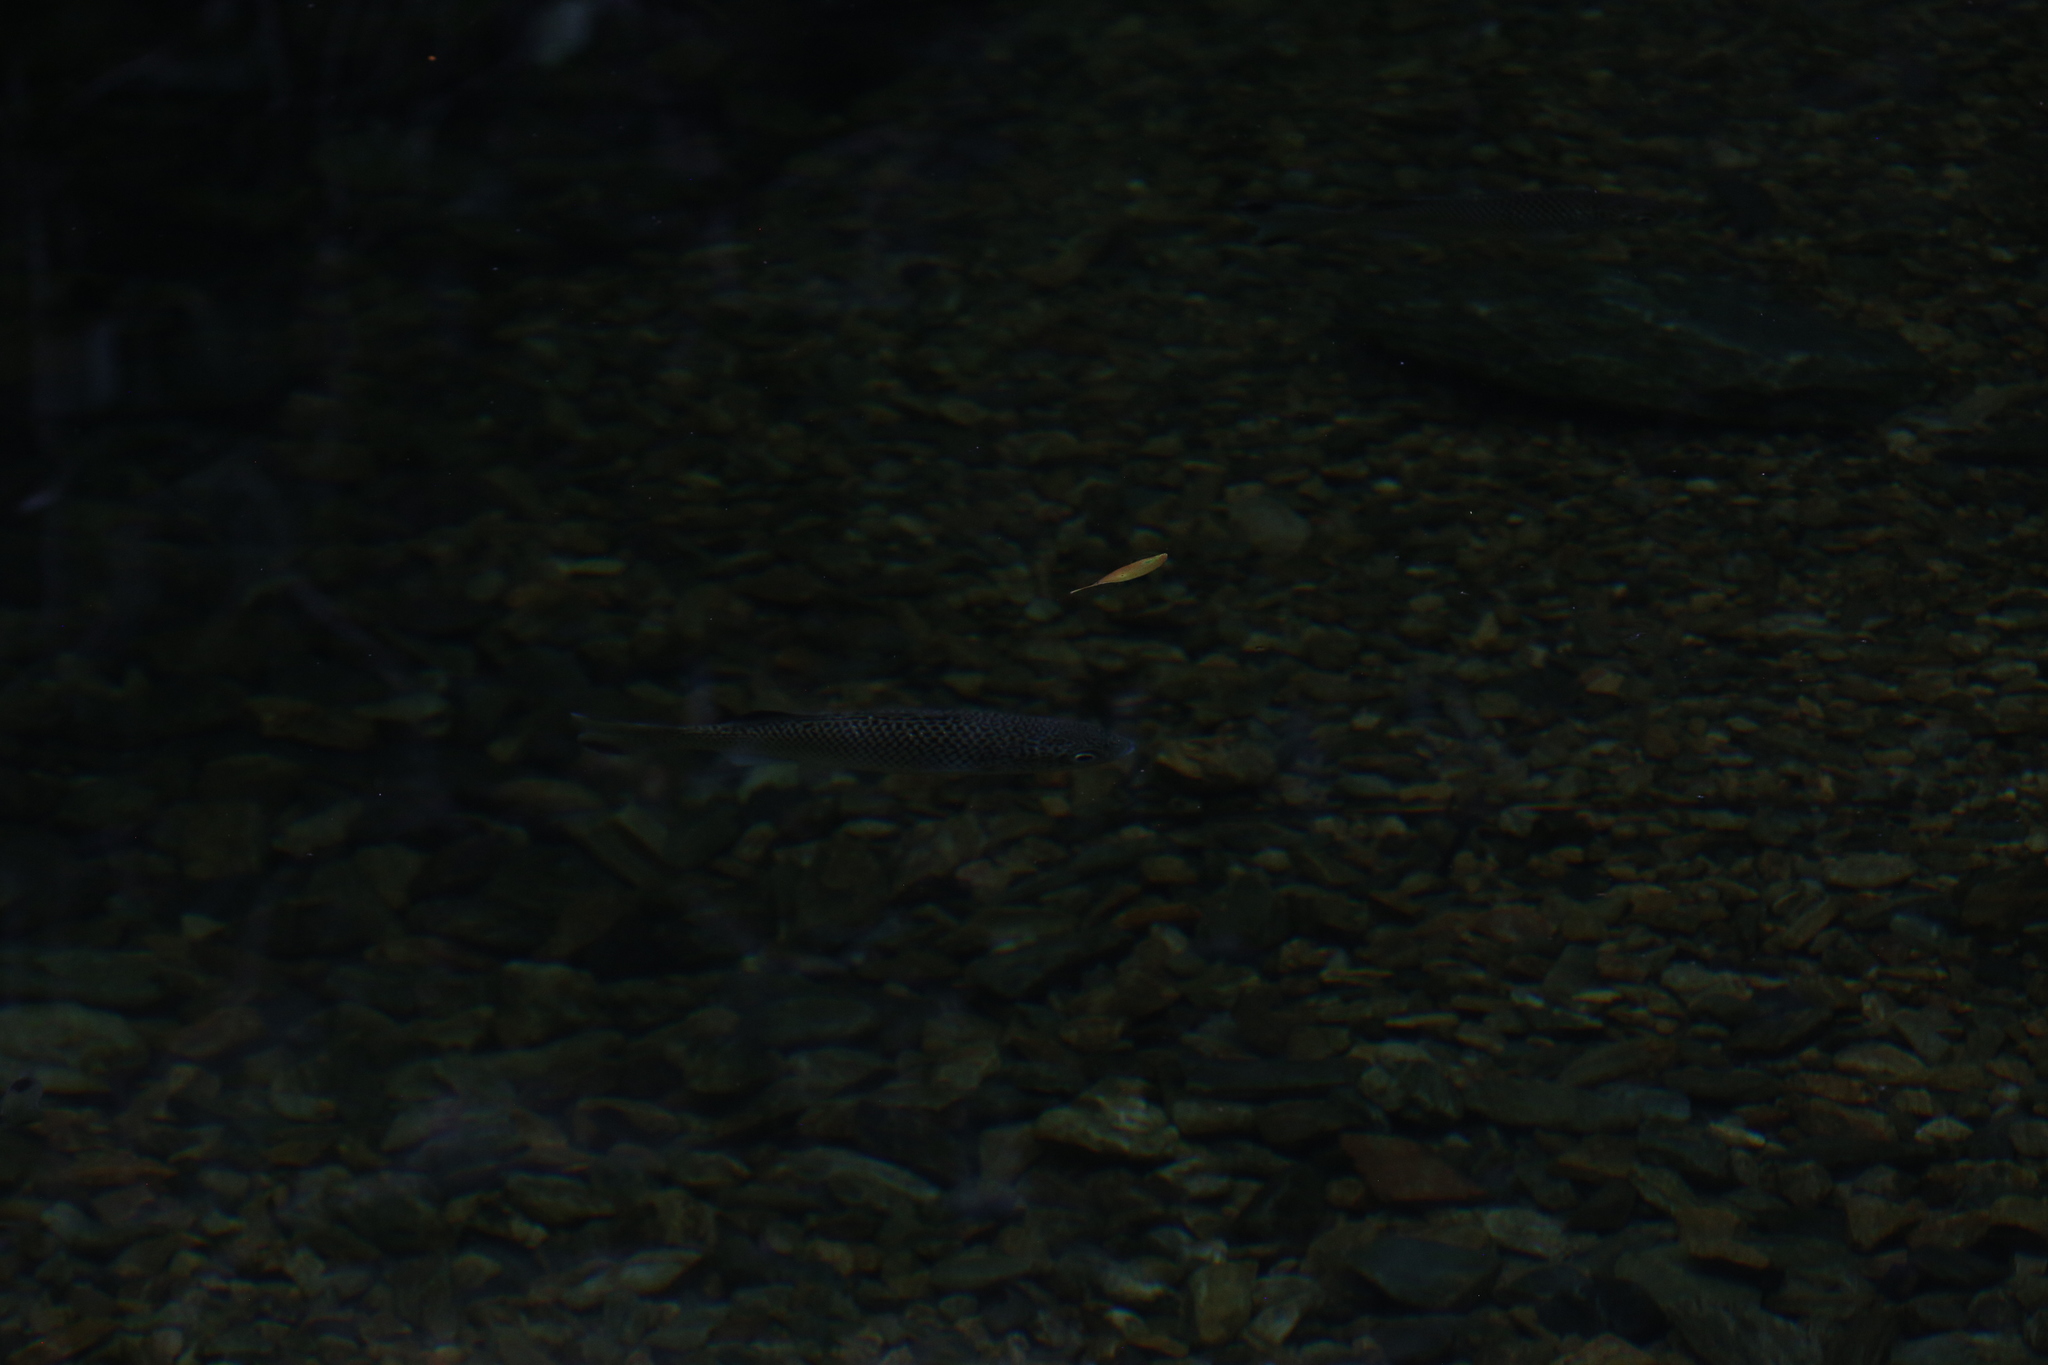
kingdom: Animalia
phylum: Chordata
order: Perciformes
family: Kuhliidae
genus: Kuhlia
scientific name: Kuhlia rupestris
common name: Rock flagtail
